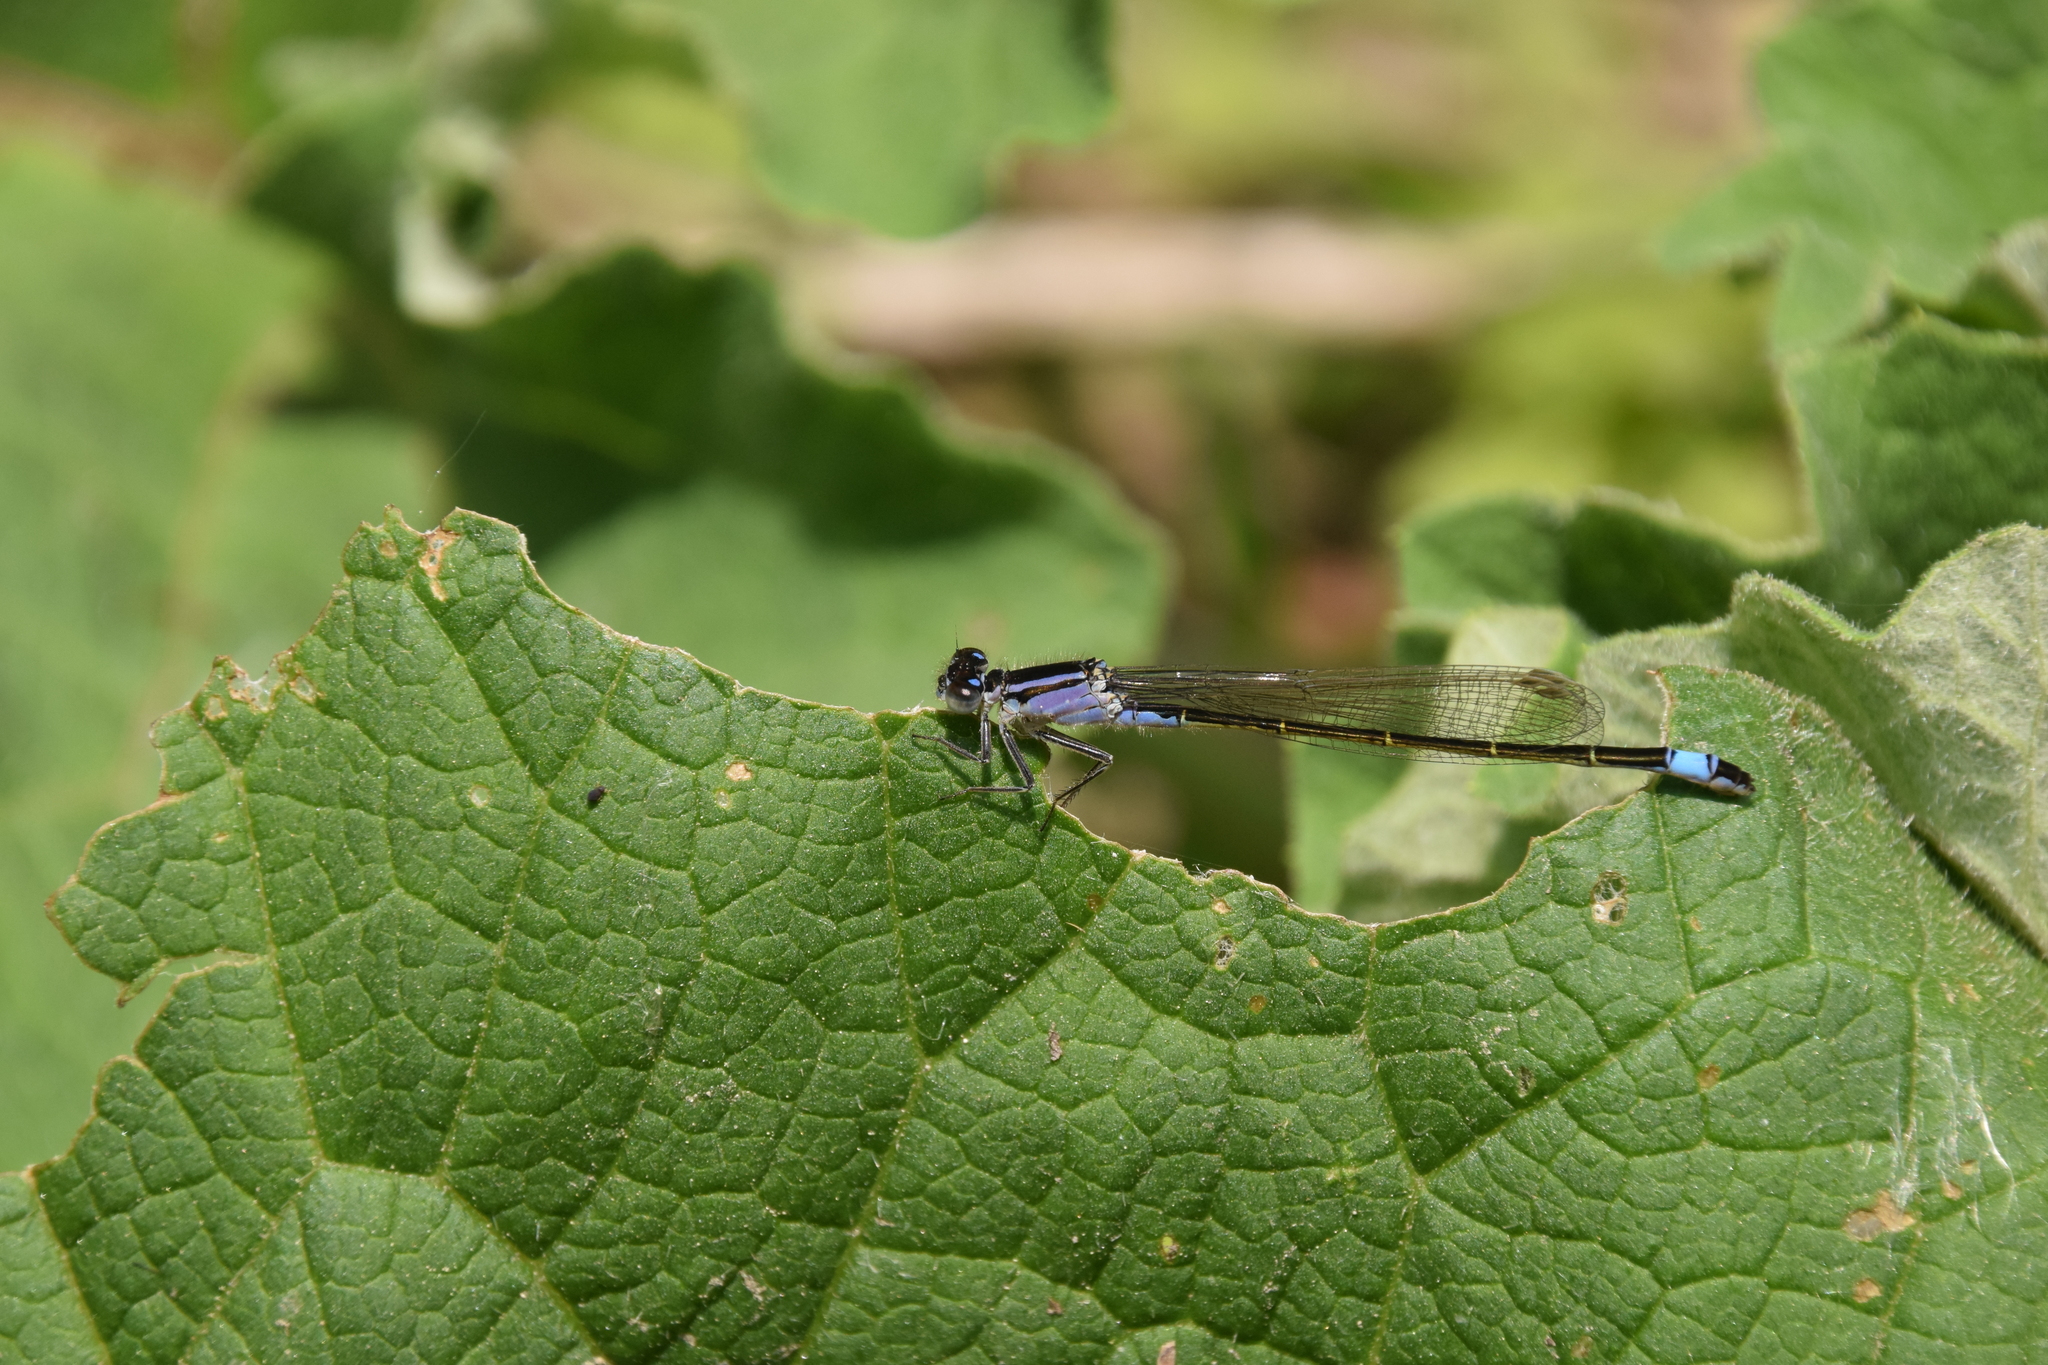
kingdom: Animalia
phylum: Arthropoda
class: Insecta
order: Odonata
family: Coenagrionidae
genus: Ischnura
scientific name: Ischnura elegans
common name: Blue-tailed damselfly
